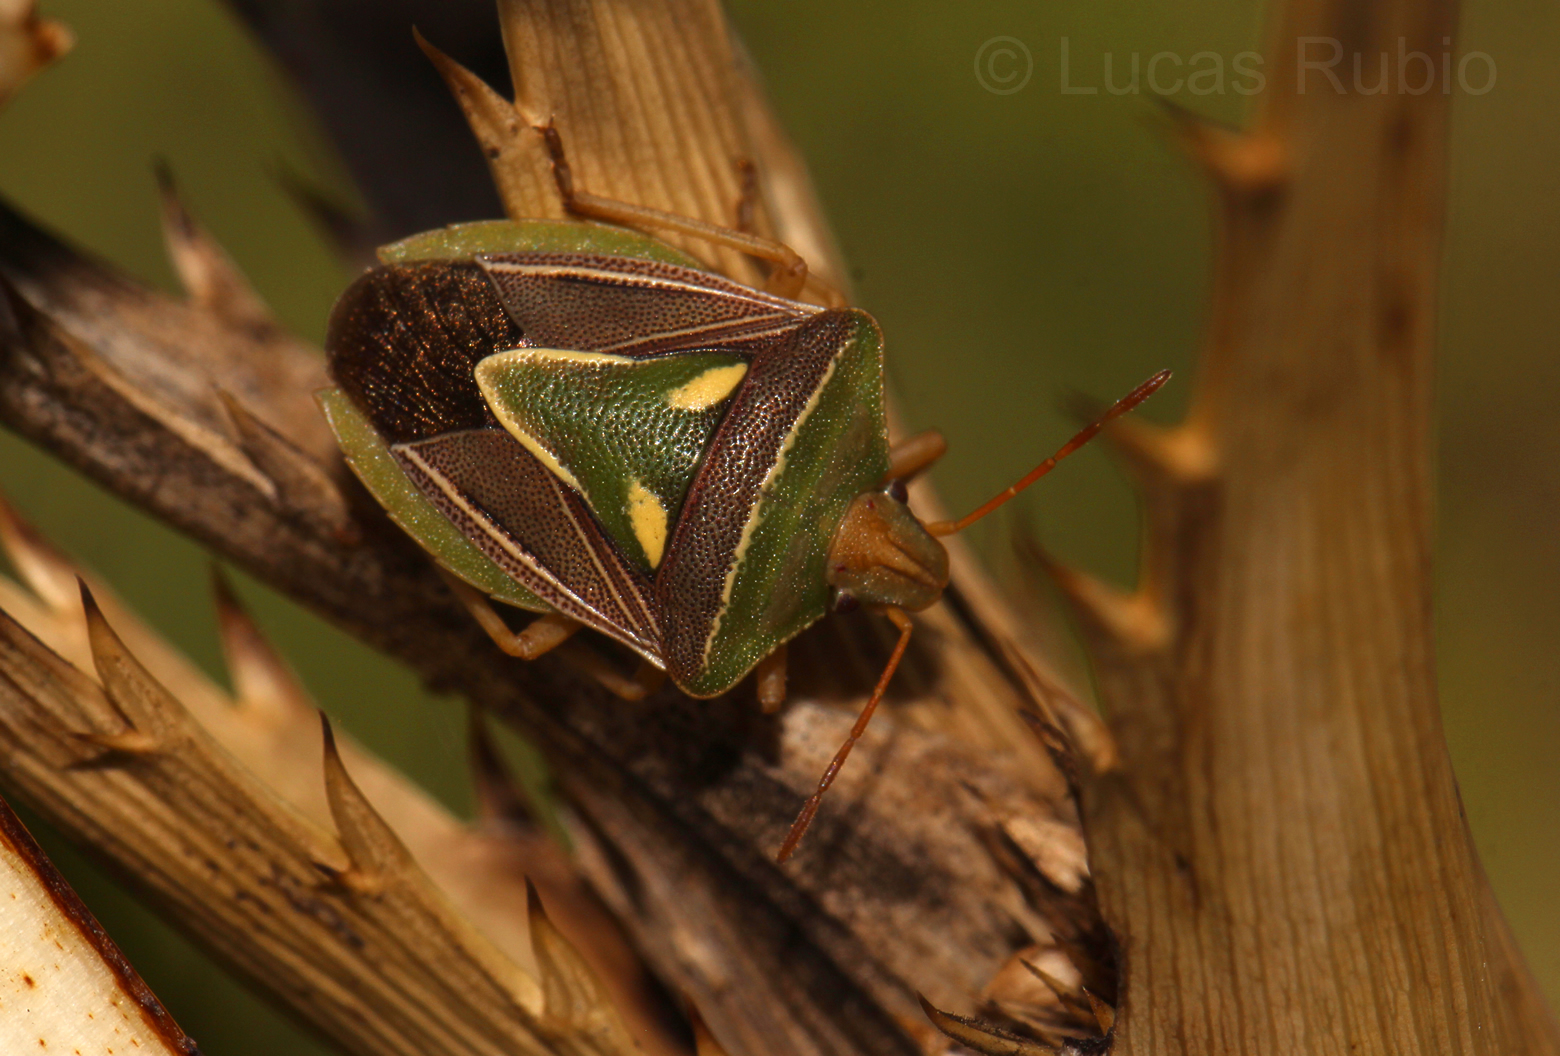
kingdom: Animalia
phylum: Arthropoda
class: Insecta
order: Hemiptera
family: Pentatomidae
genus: Acledra
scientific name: Acledra
